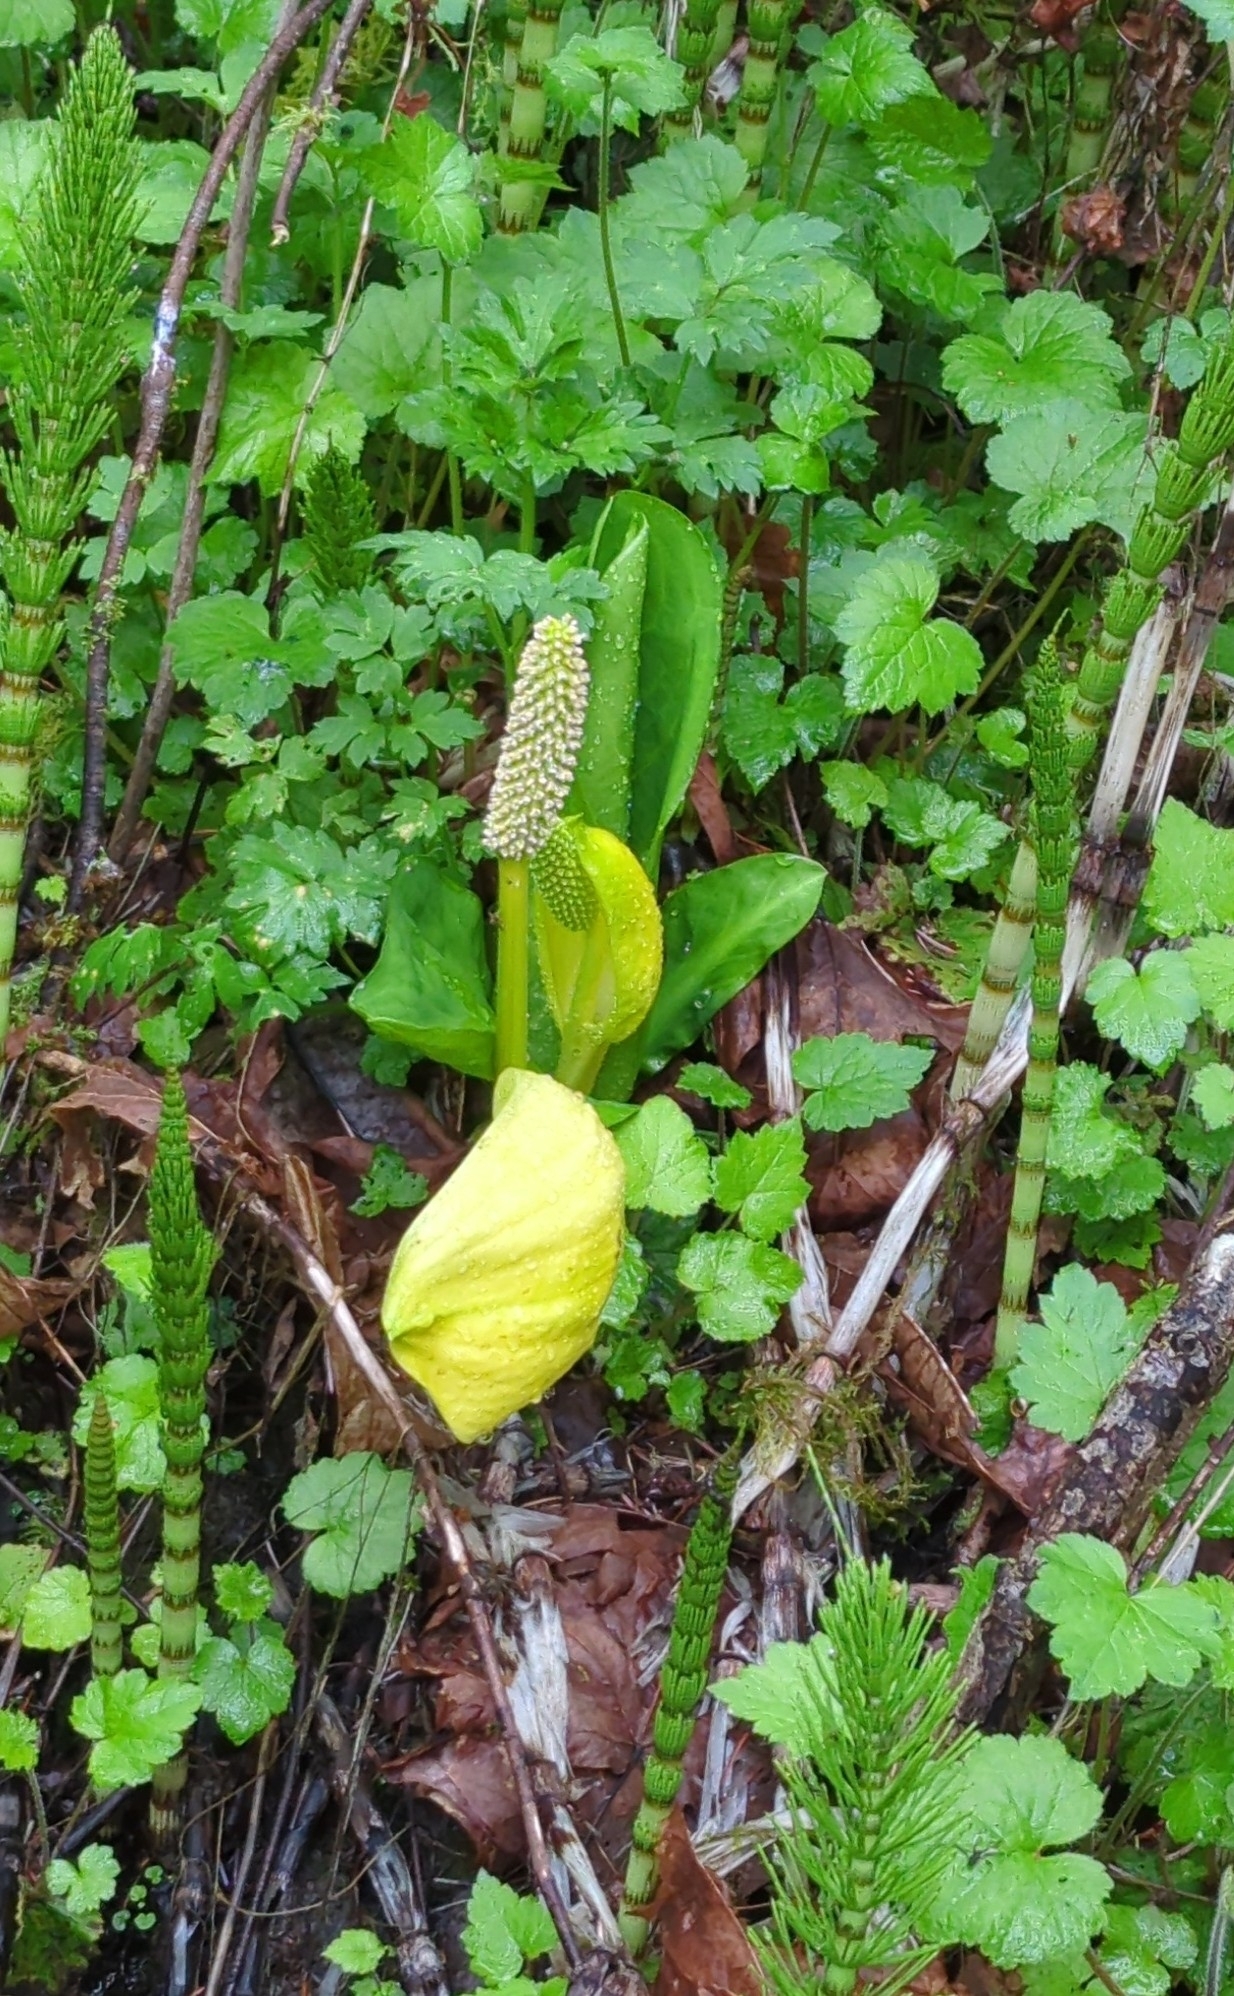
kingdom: Plantae
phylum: Tracheophyta
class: Liliopsida
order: Alismatales
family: Araceae
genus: Lysichiton
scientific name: Lysichiton americanus
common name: American skunk cabbage
